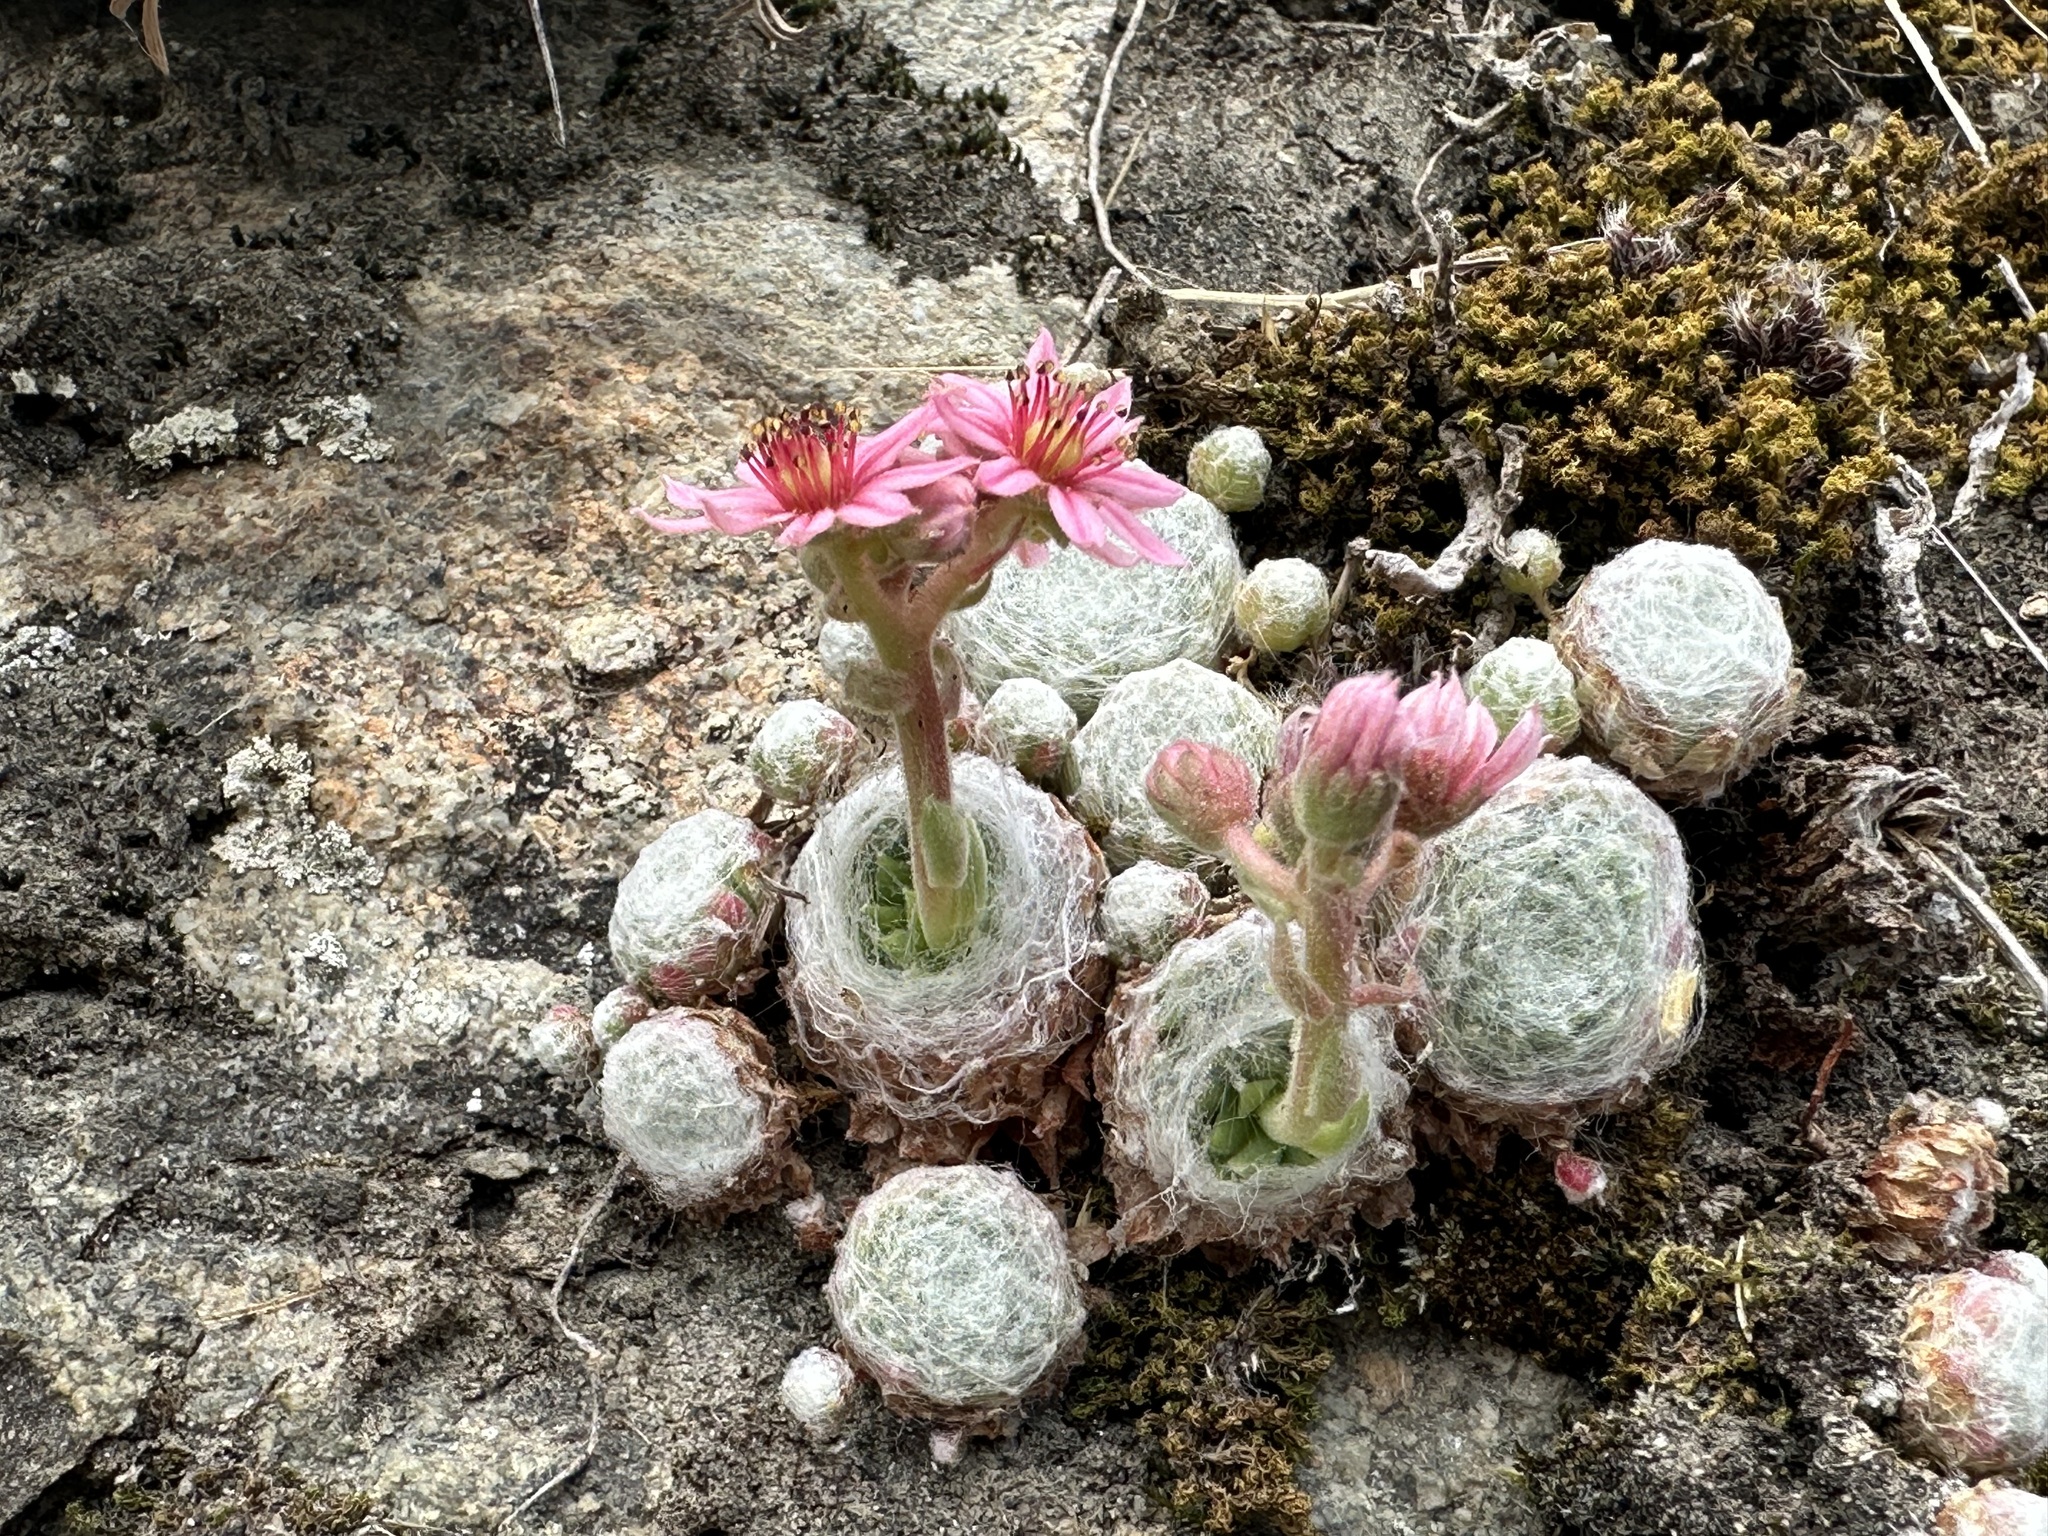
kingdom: Plantae
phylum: Tracheophyta
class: Magnoliopsida
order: Saxifragales
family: Crassulaceae
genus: Sempervivum
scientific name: Sempervivum arachnoideum
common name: Cobweb house-leek
